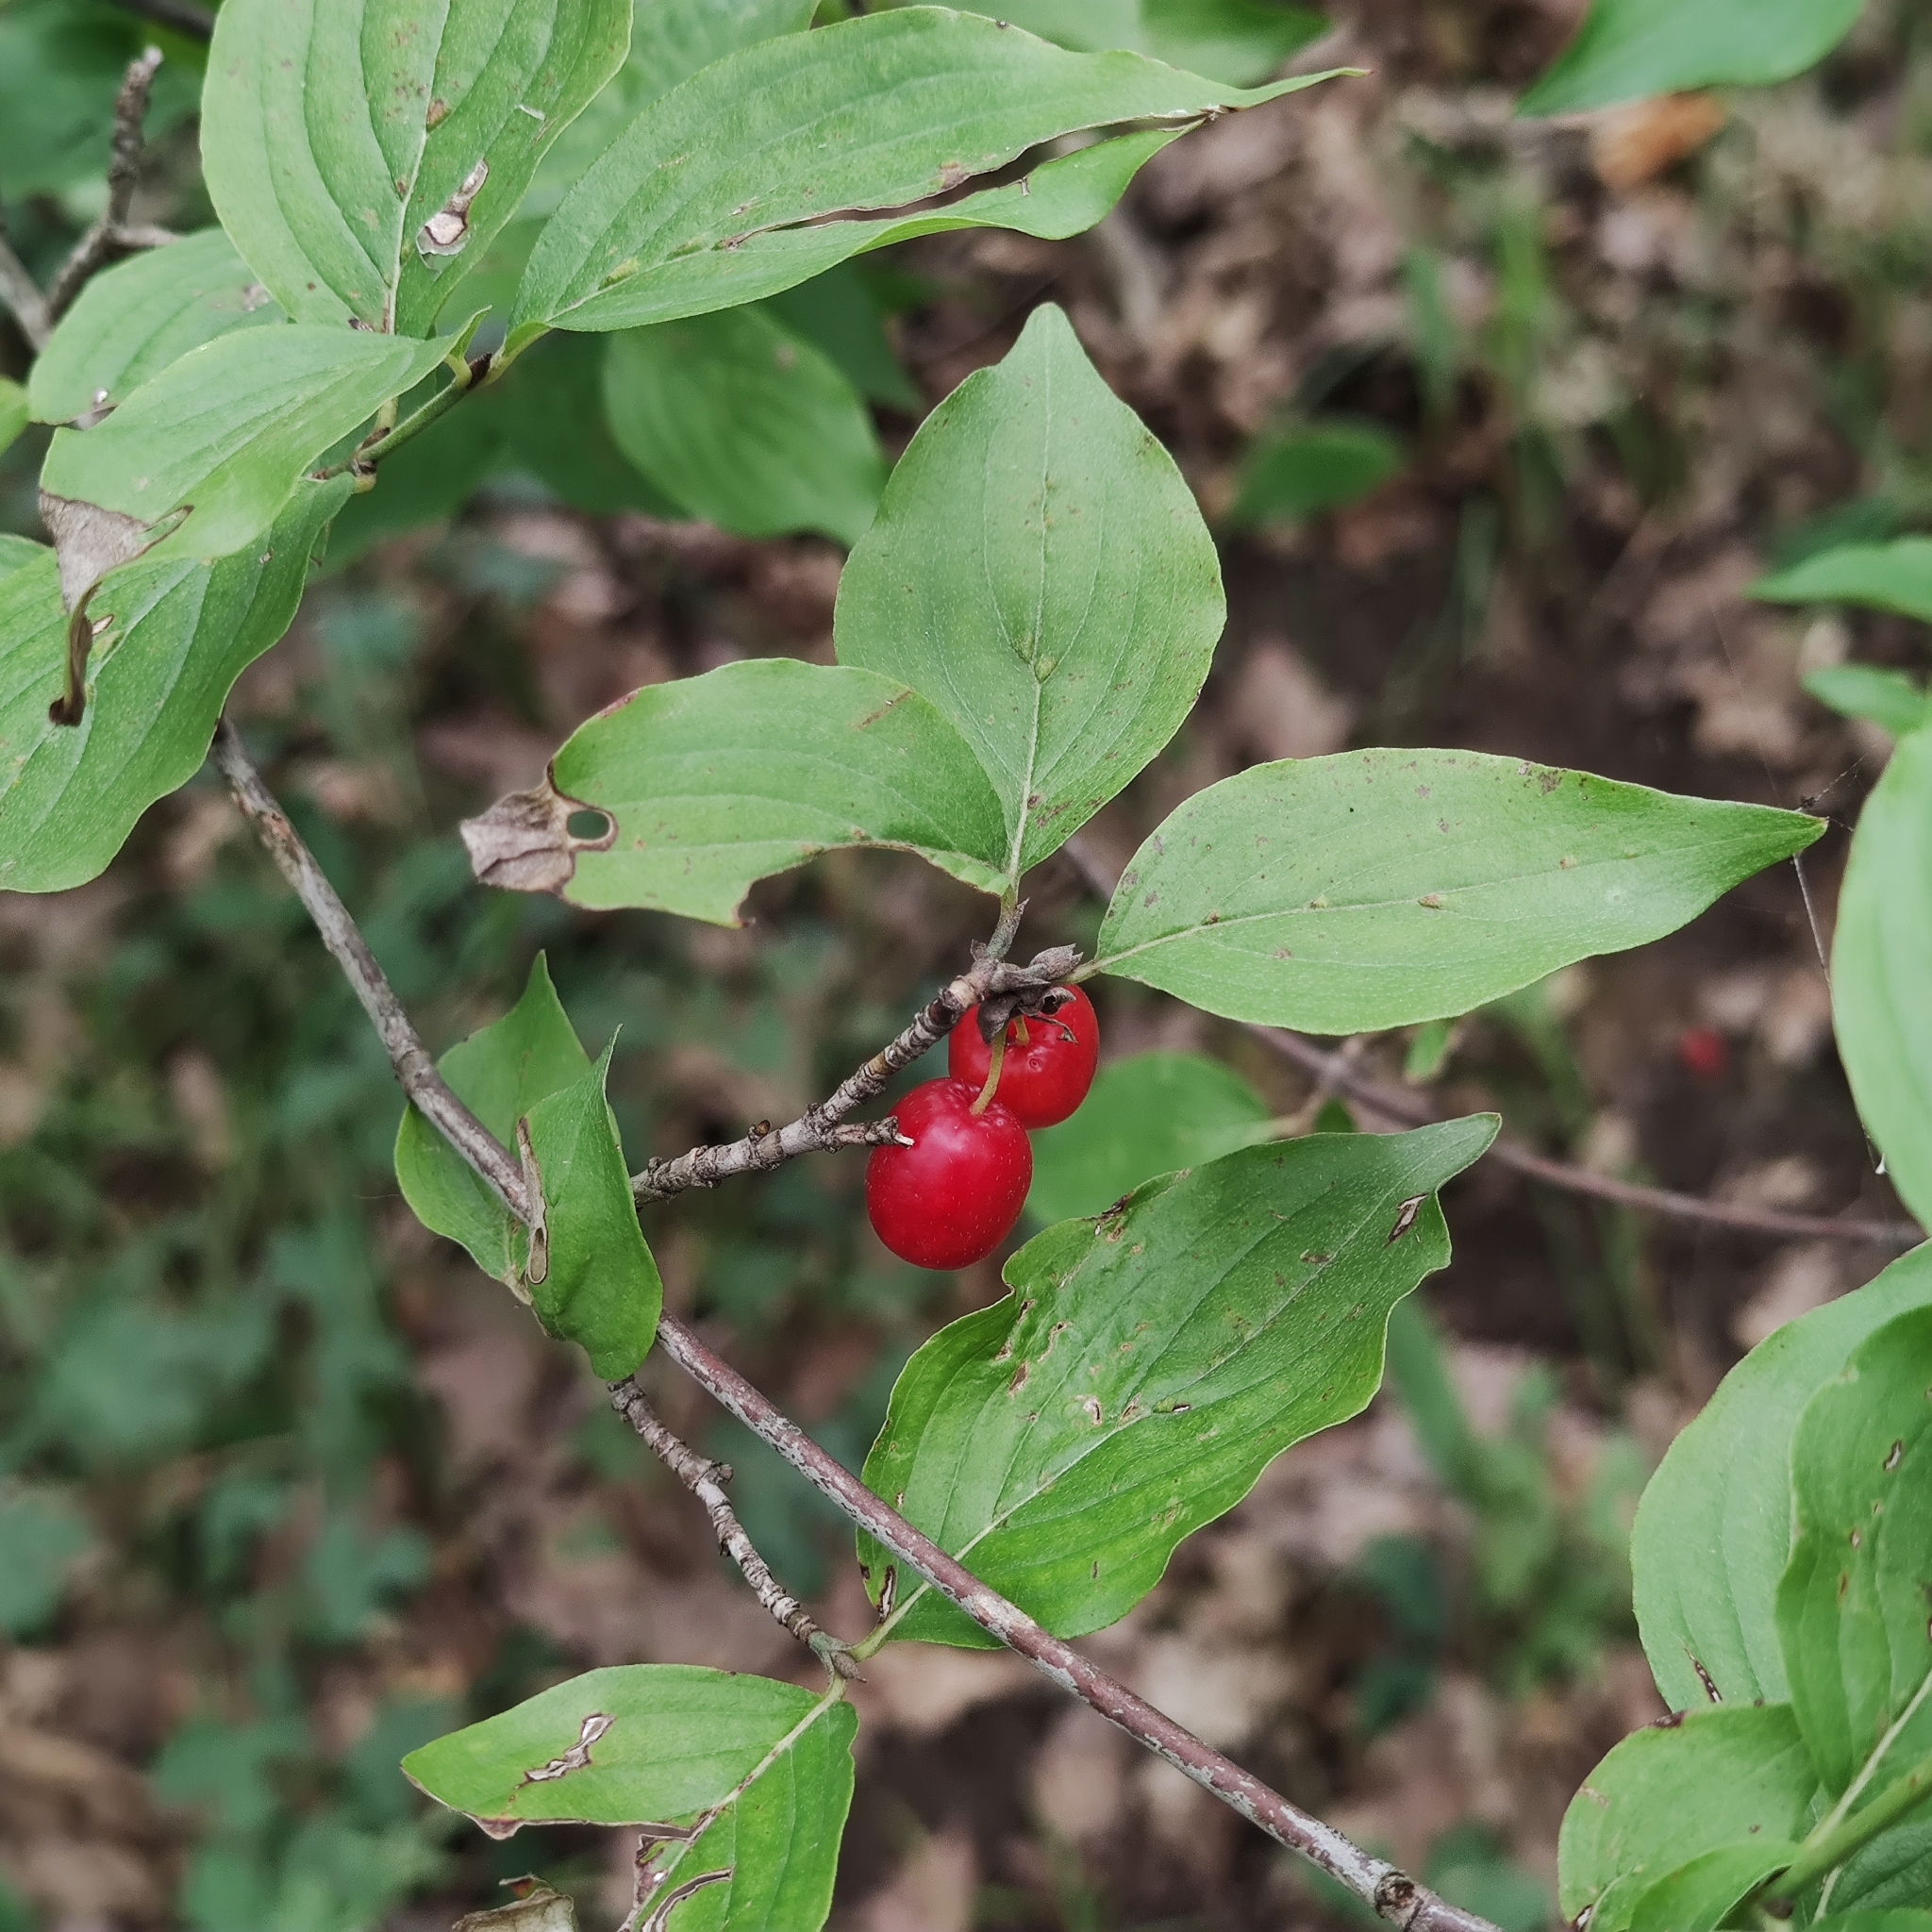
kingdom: Plantae
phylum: Tracheophyta
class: Magnoliopsida
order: Cornales
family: Cornaceae
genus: Cornus
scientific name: Cornus mas
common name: Cornelian-cherry
